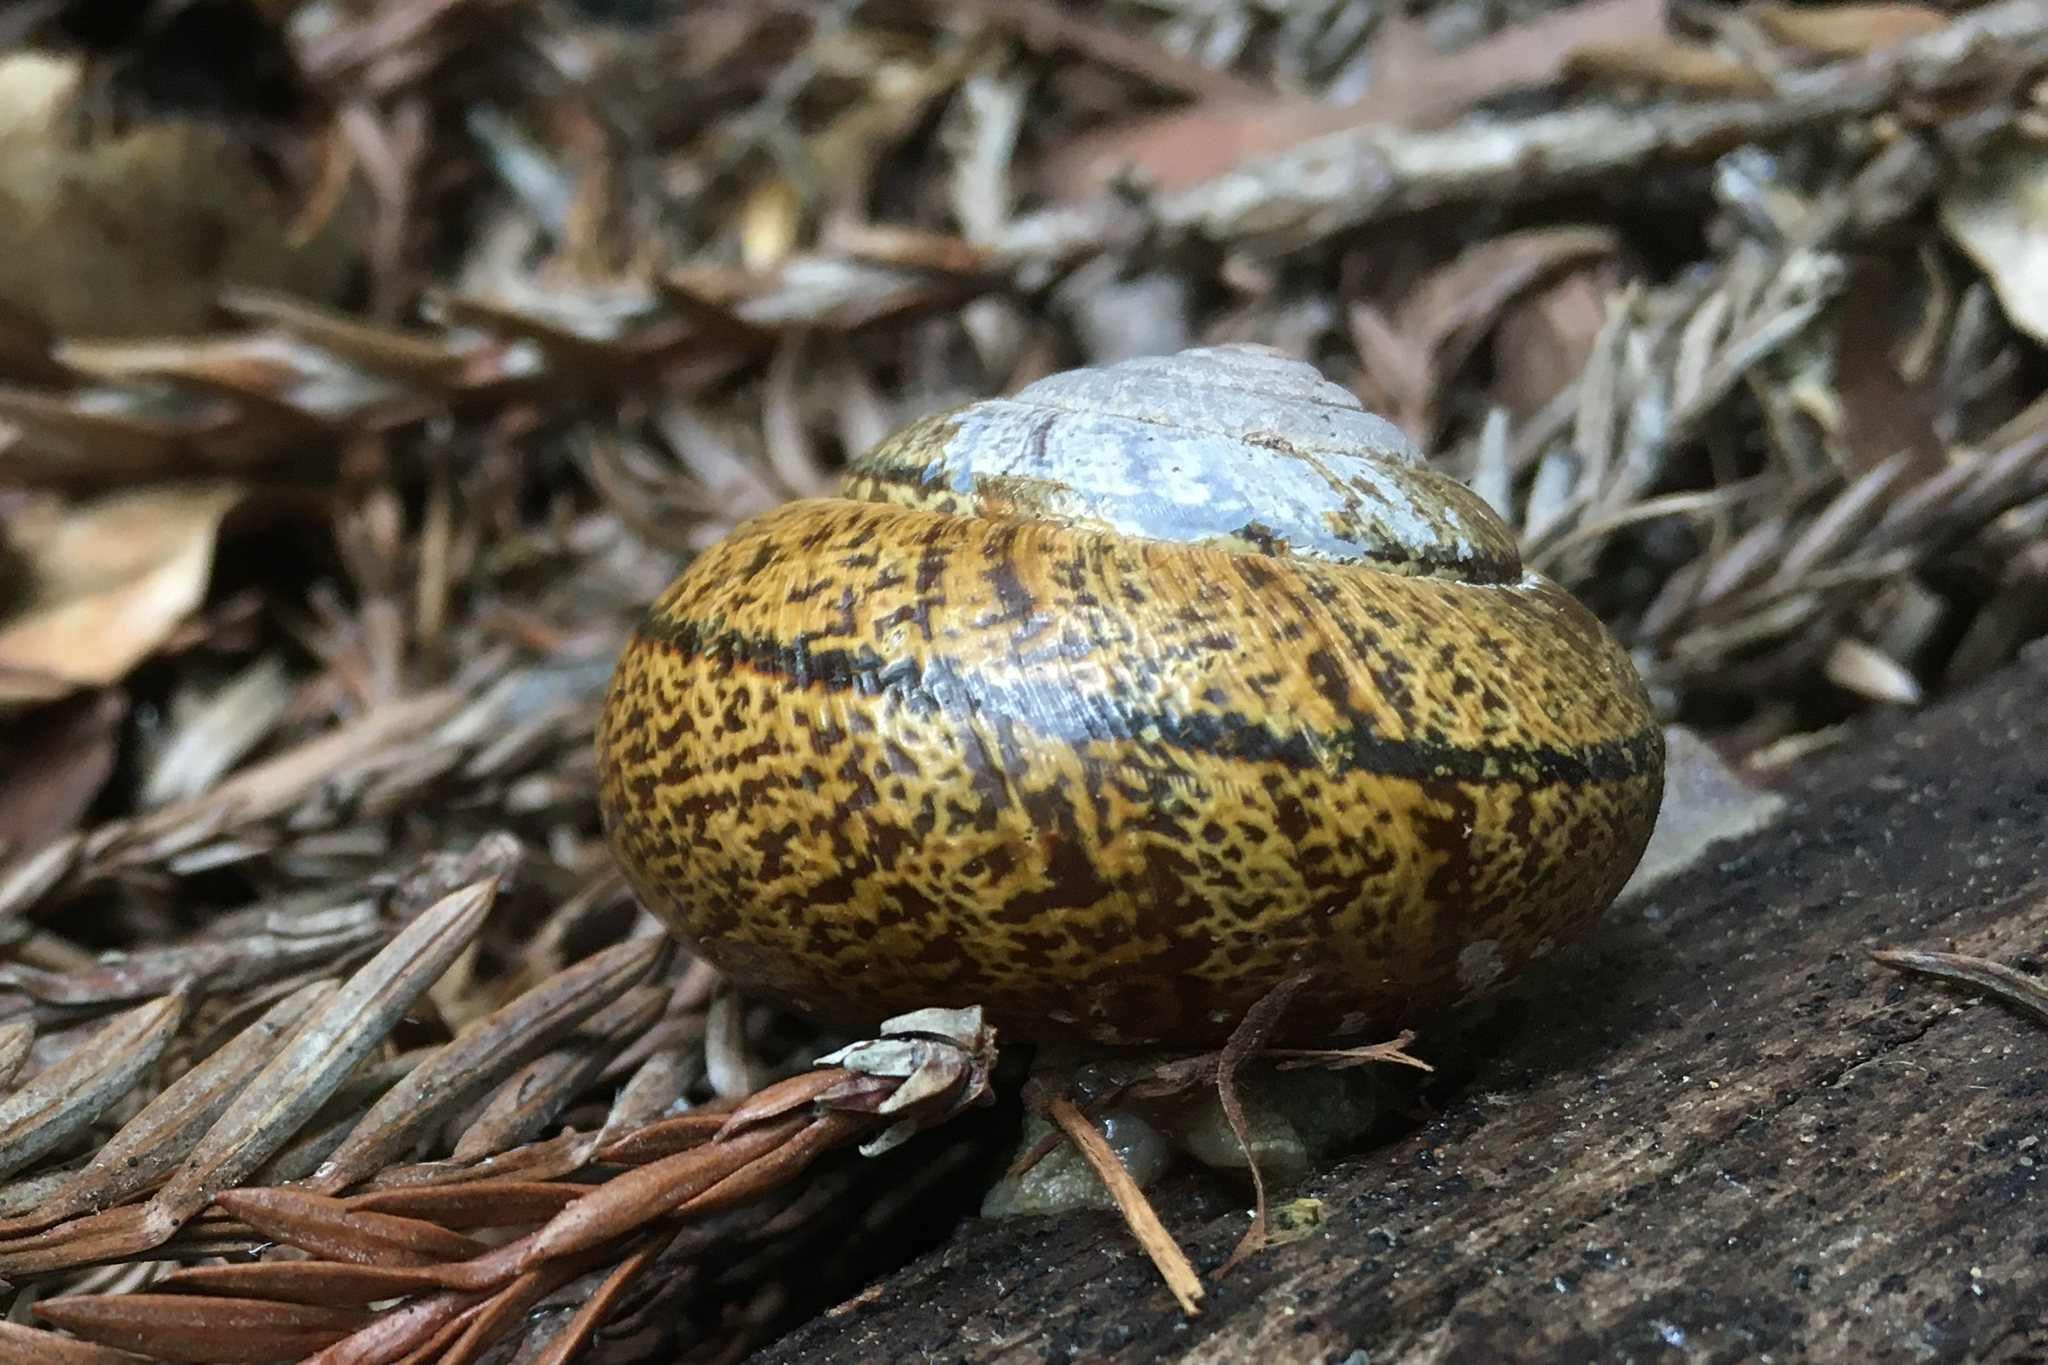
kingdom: Animalia
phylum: Mollusca
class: Gastropoda
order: Stylommatophora
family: Xanthonychidae
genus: Helminthoglypta
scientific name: Helminthoglypta arrosa
